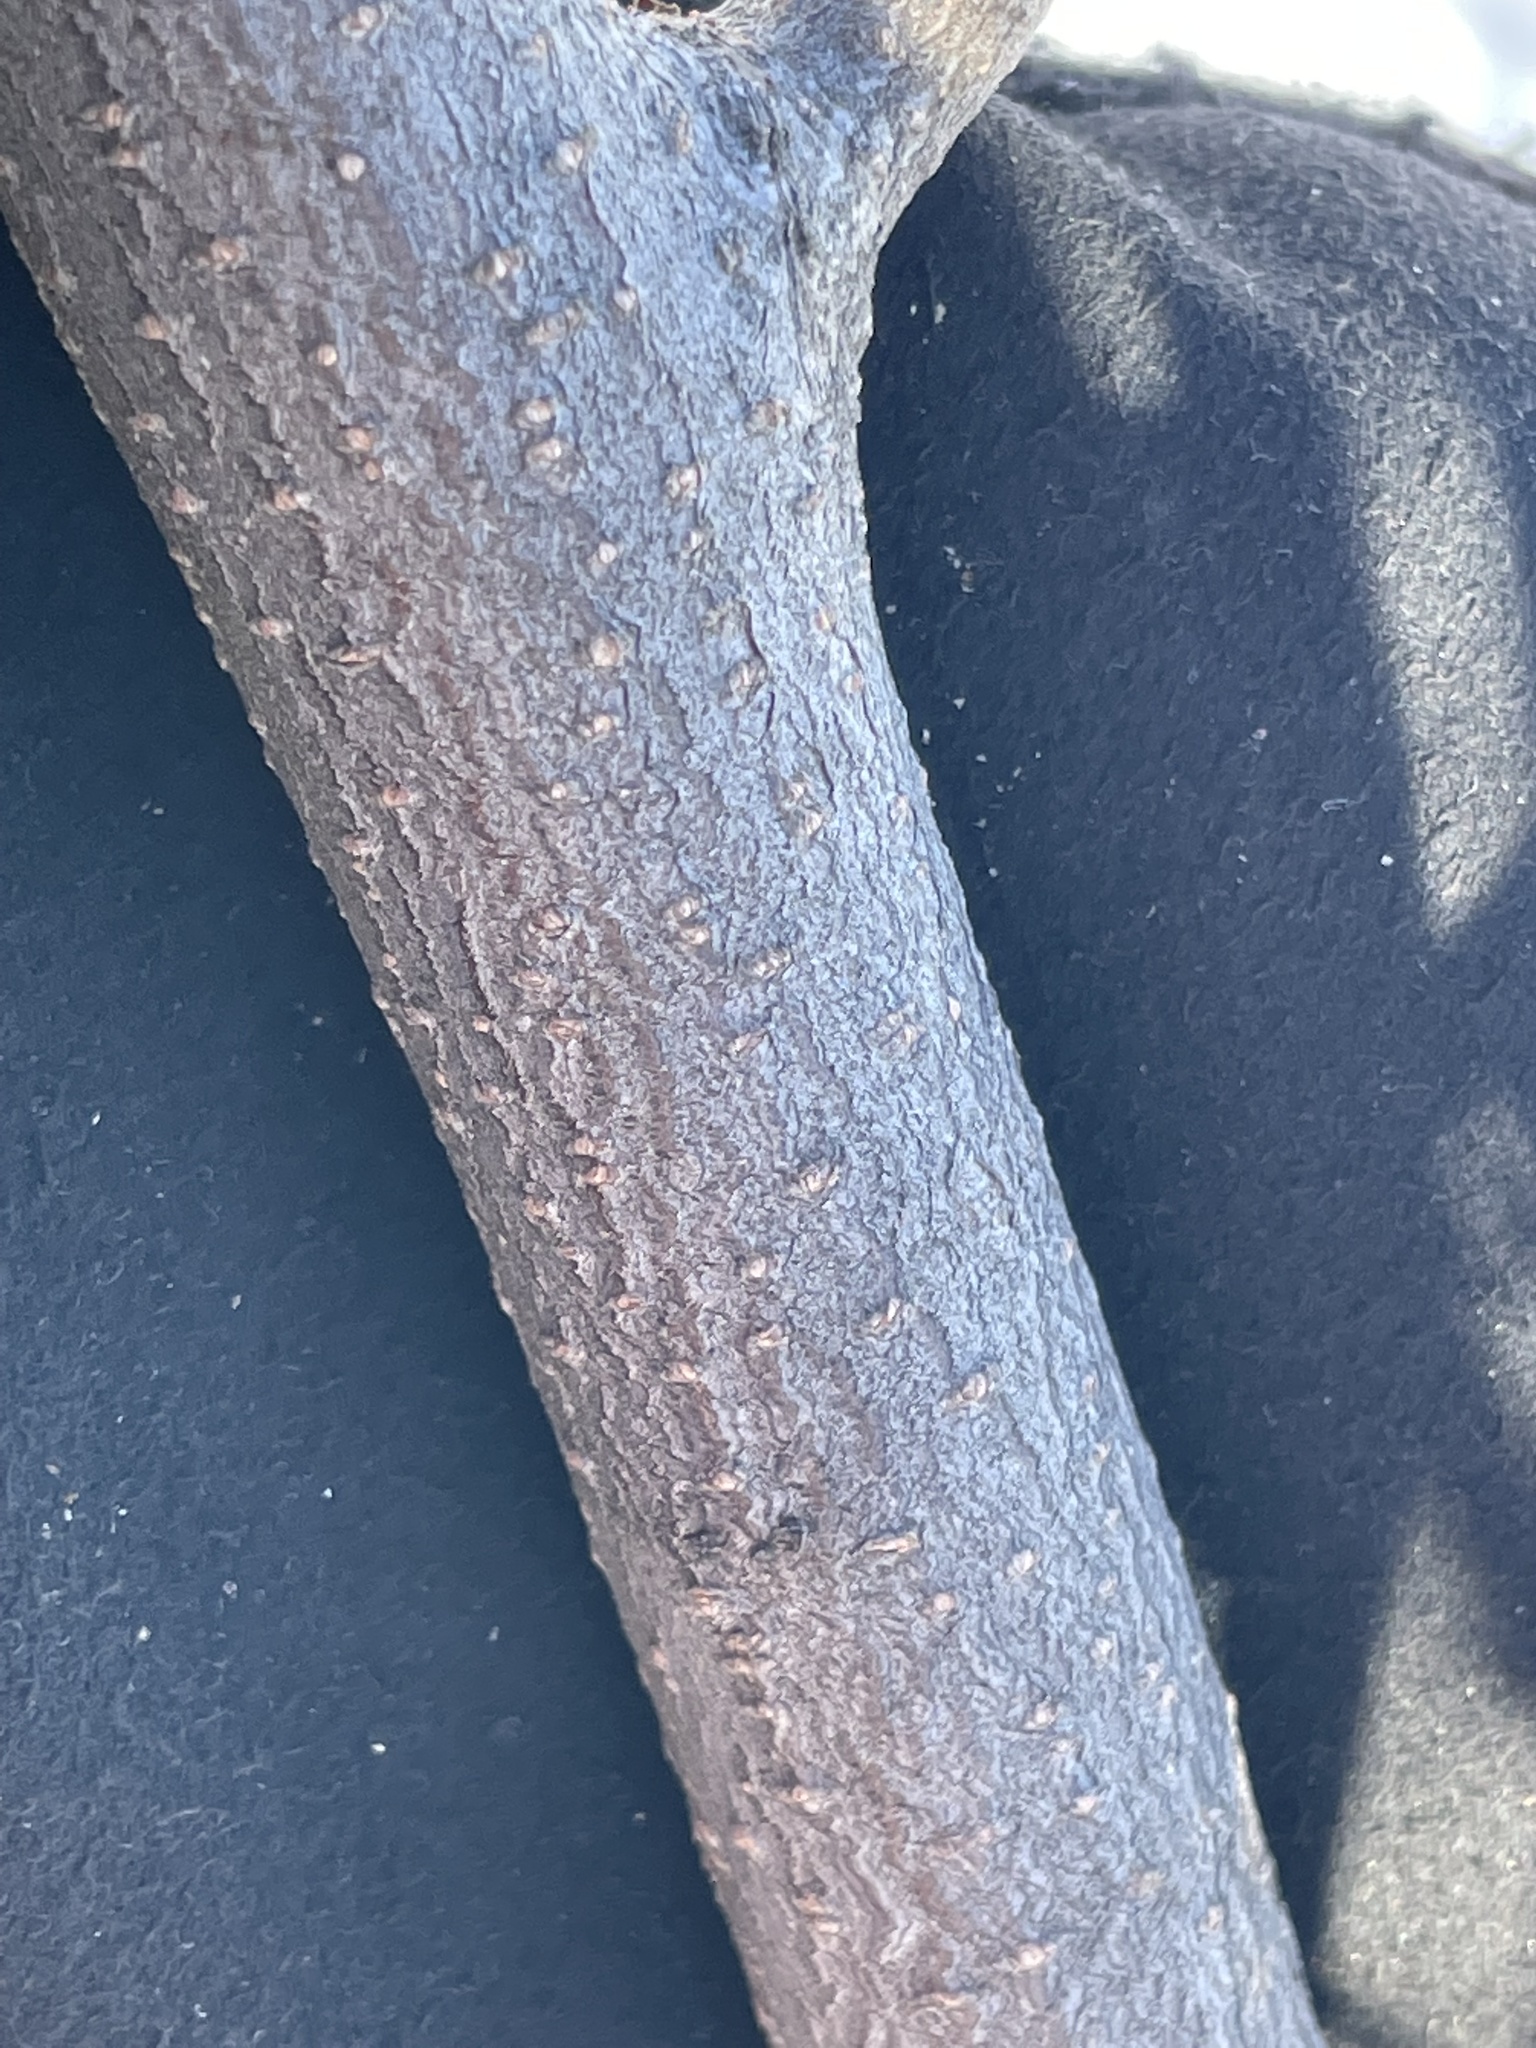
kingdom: Plantae
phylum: Tracheophyta
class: Magnoliopsida
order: Rosales
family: Elaeagnaceae
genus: Elaeagnus
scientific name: Elaeagnus umbellata
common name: Autumn olive
